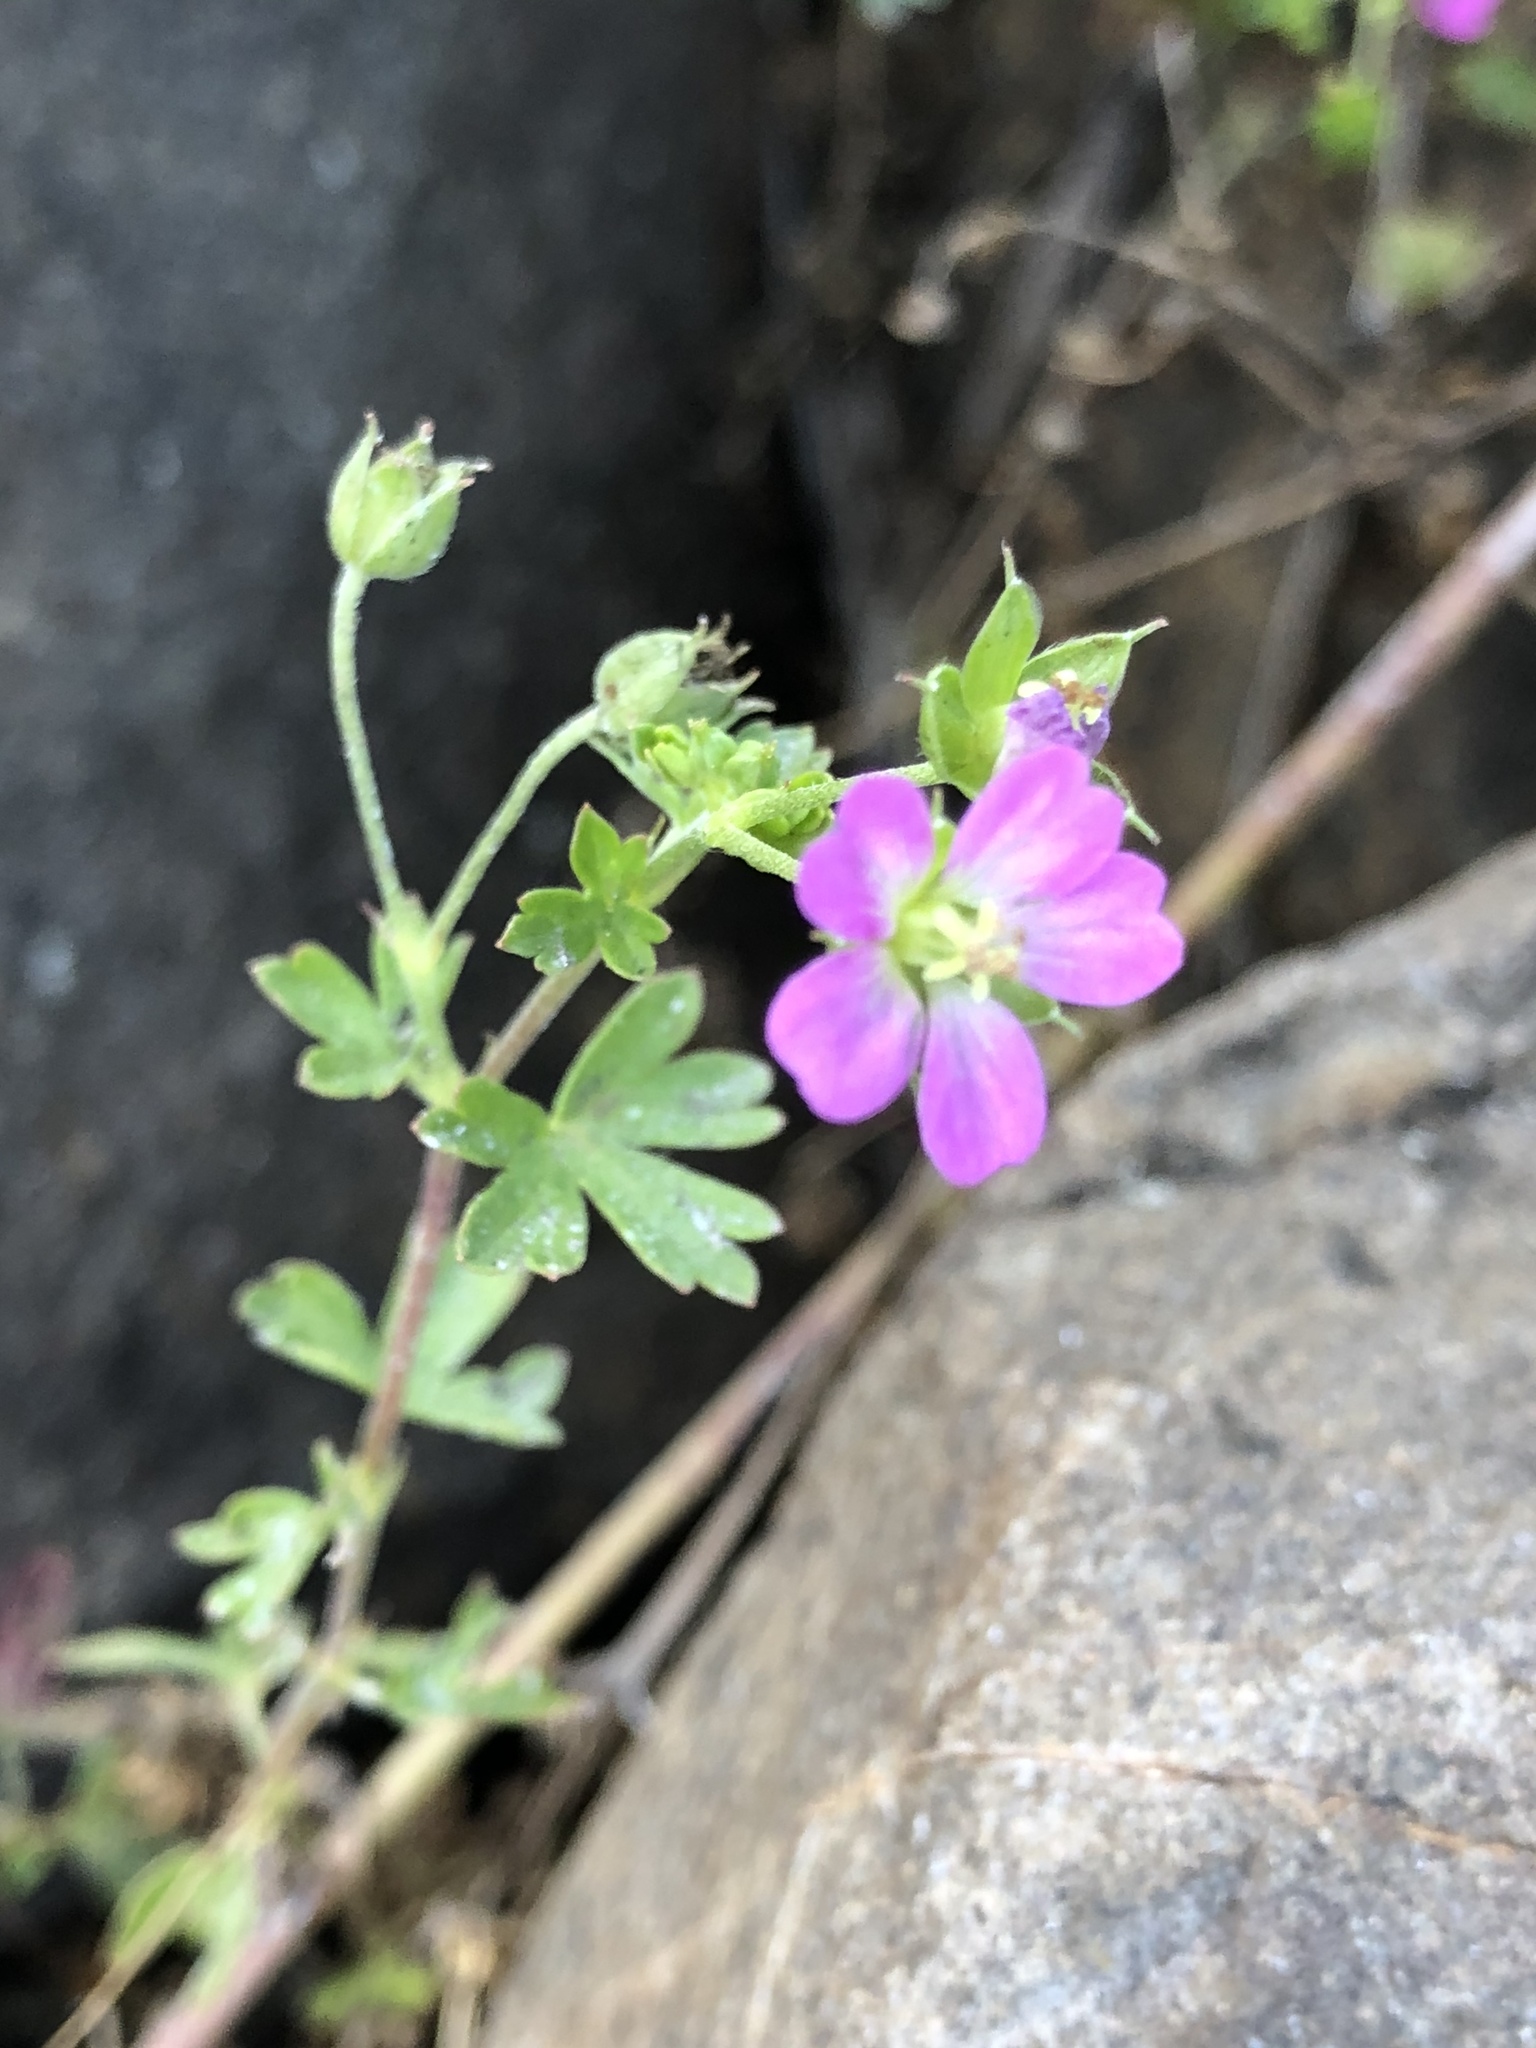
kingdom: Plantae
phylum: Tracheophyta
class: Magnoliopsida
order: Geraniales
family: Geraniaceae
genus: Geranium
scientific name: Geranium core-core
